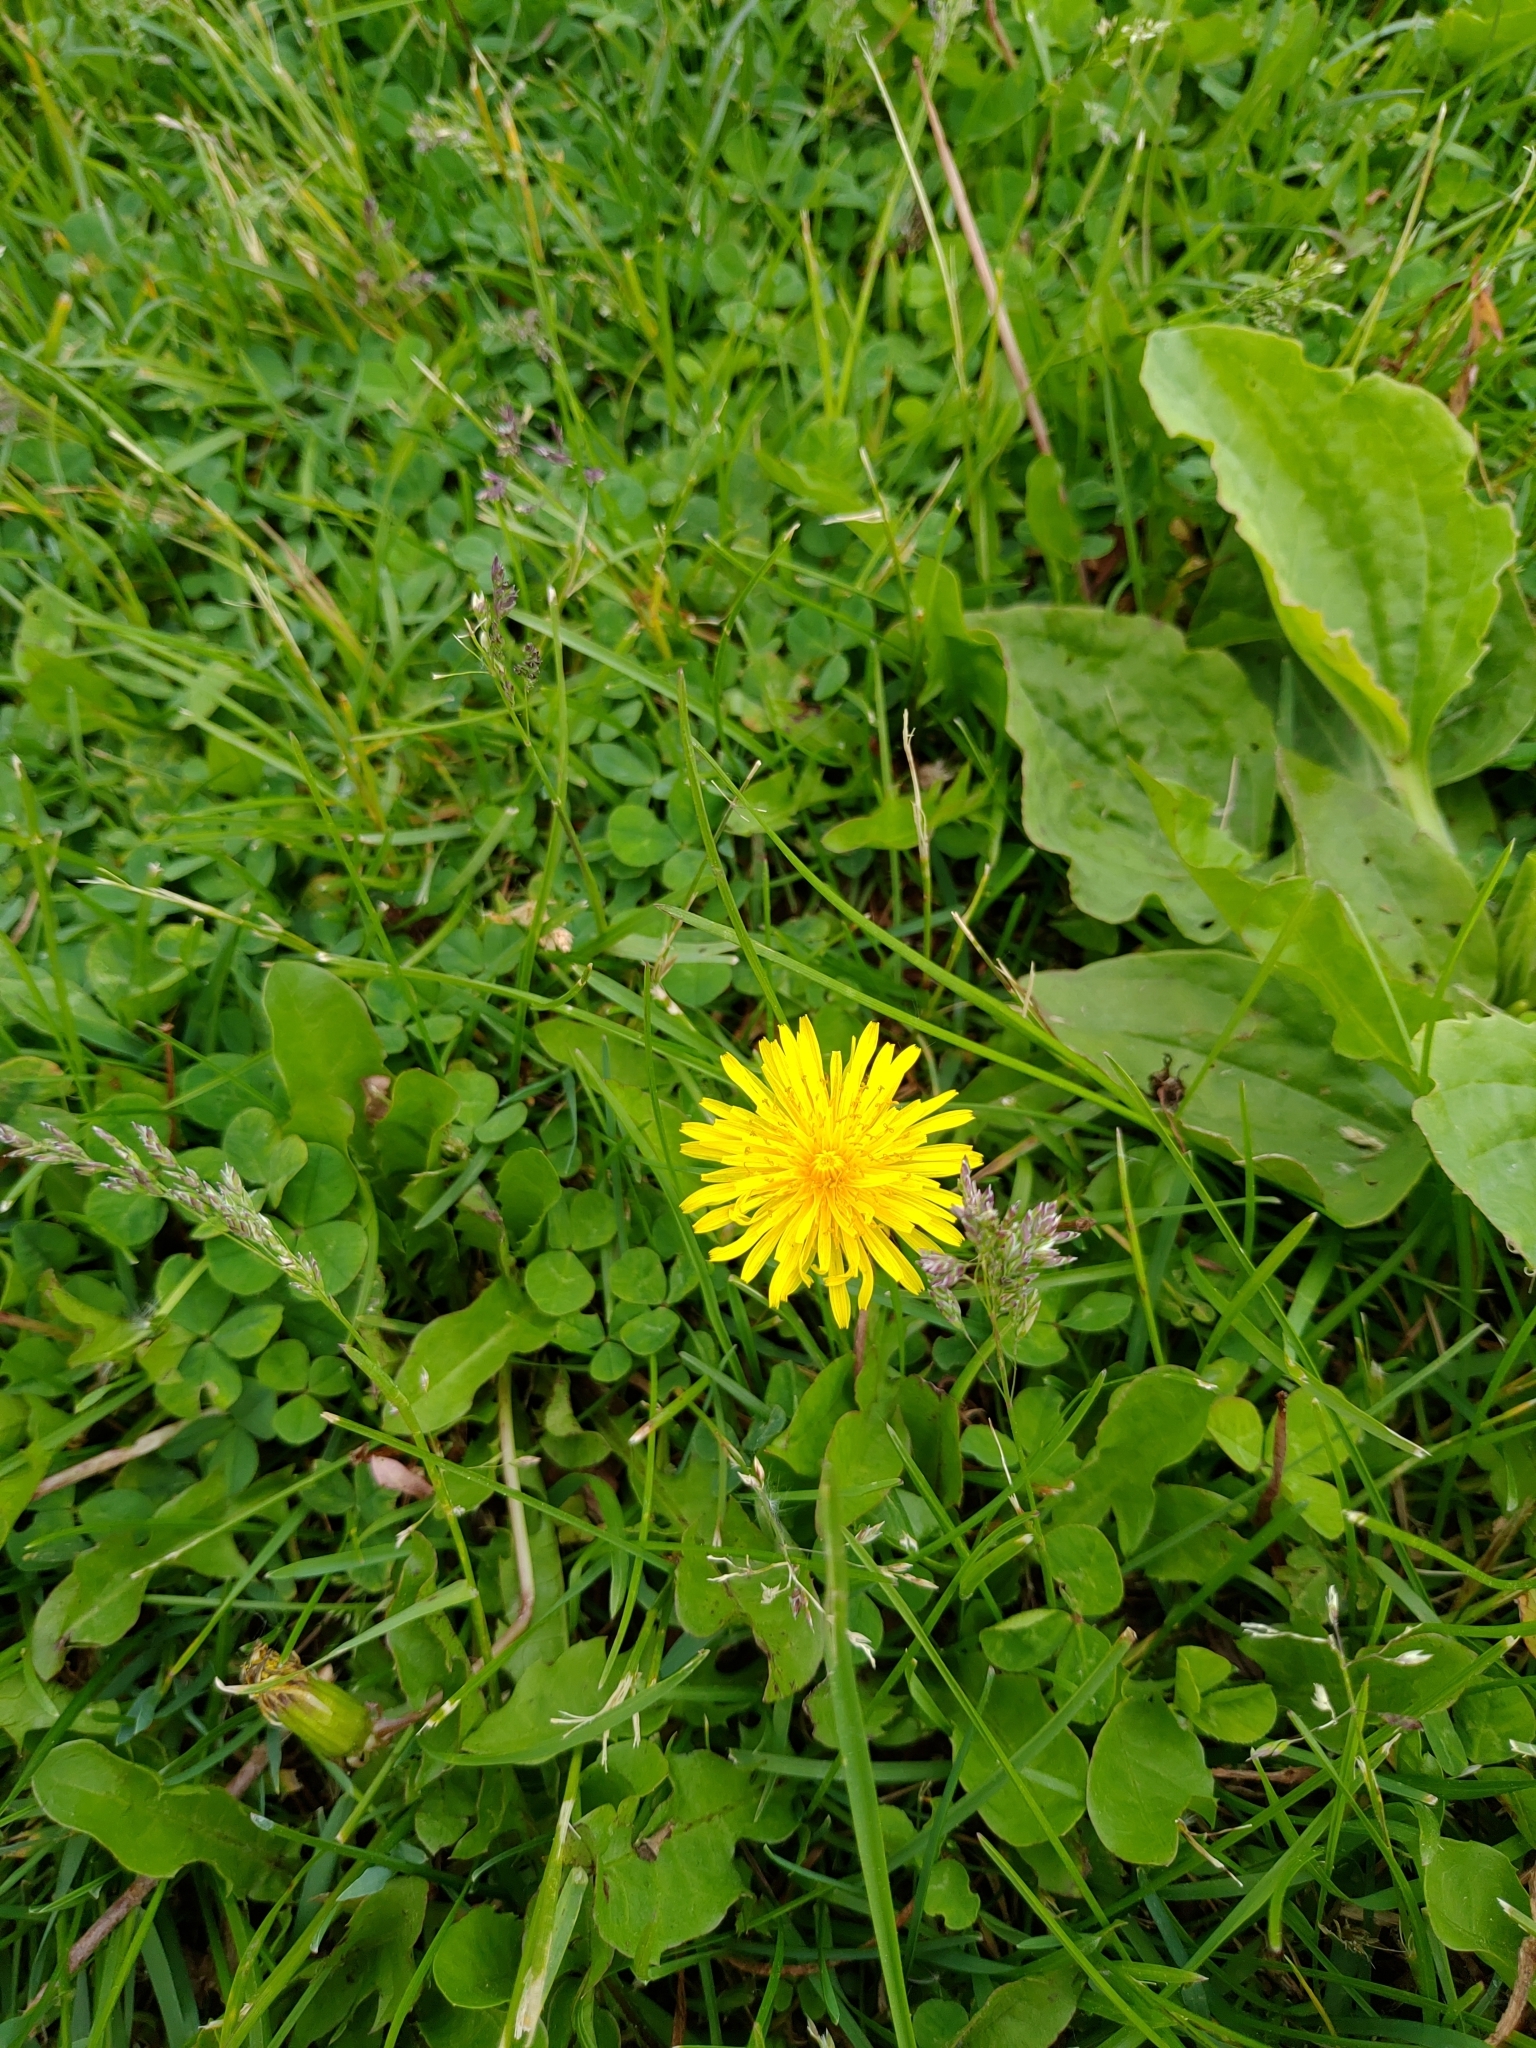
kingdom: Plantae
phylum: Tracheophyta
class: Magnoliopsida
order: Asterales
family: Asteraceae
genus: Taraxacum
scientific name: Taraxacum officinale
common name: Common dandelion
